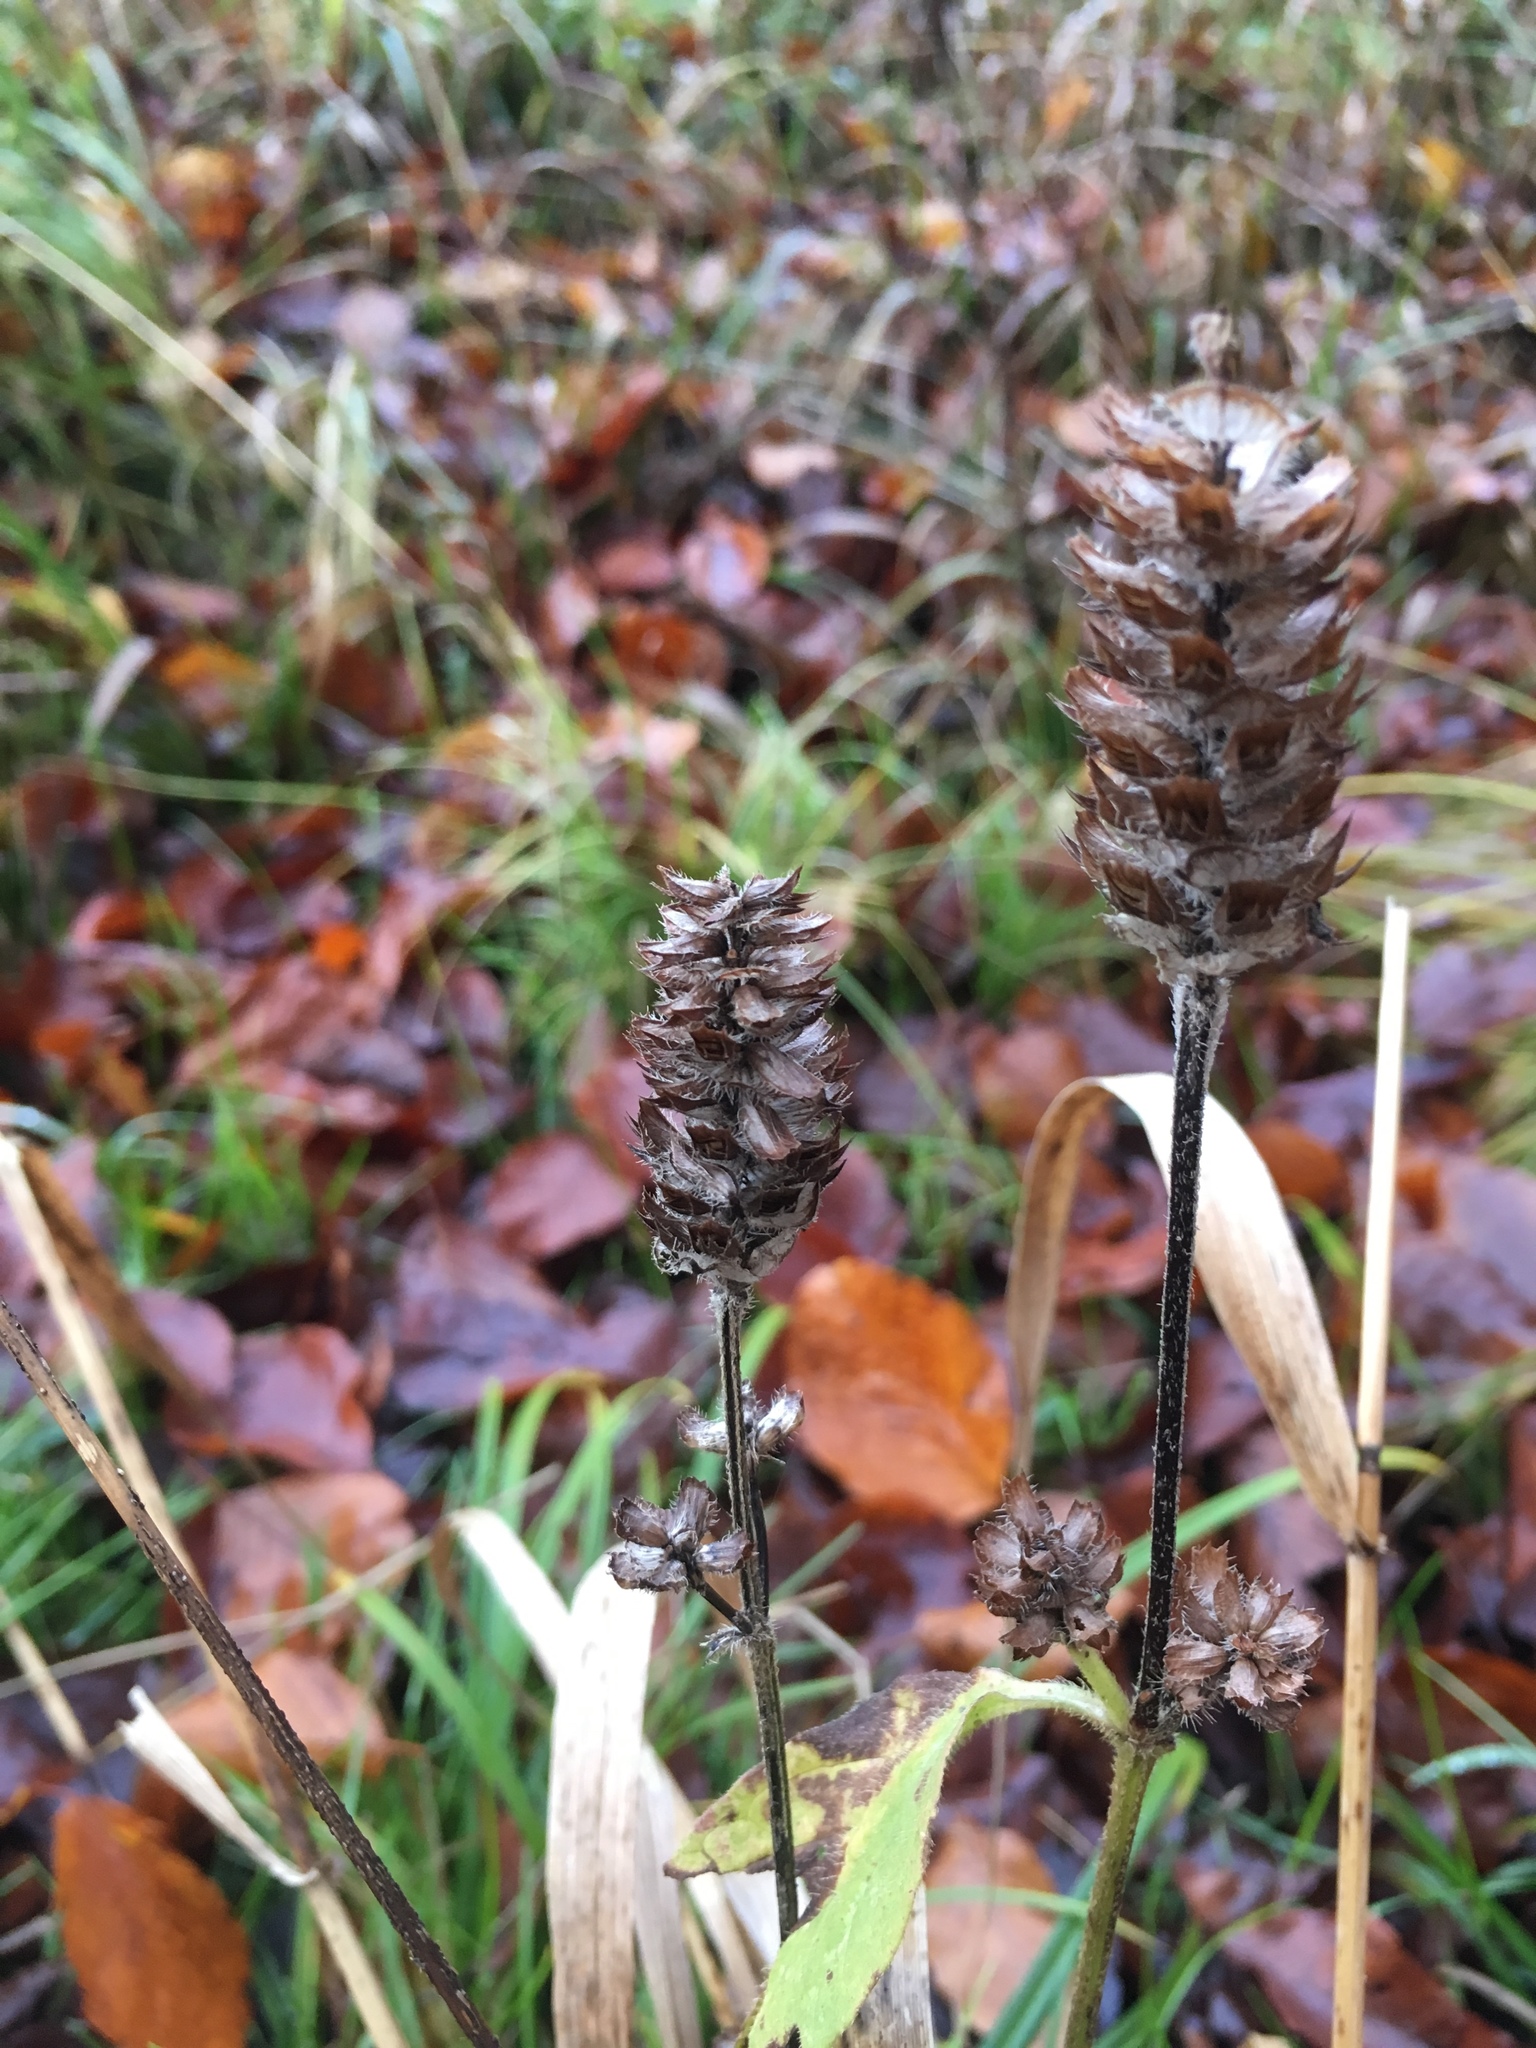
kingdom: Plantae
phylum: Tracheophyta
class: Magnoliopsida
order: Lamiales
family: Lamiaceae
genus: Prunella
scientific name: Prunella vulgaris
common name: Heal-all
